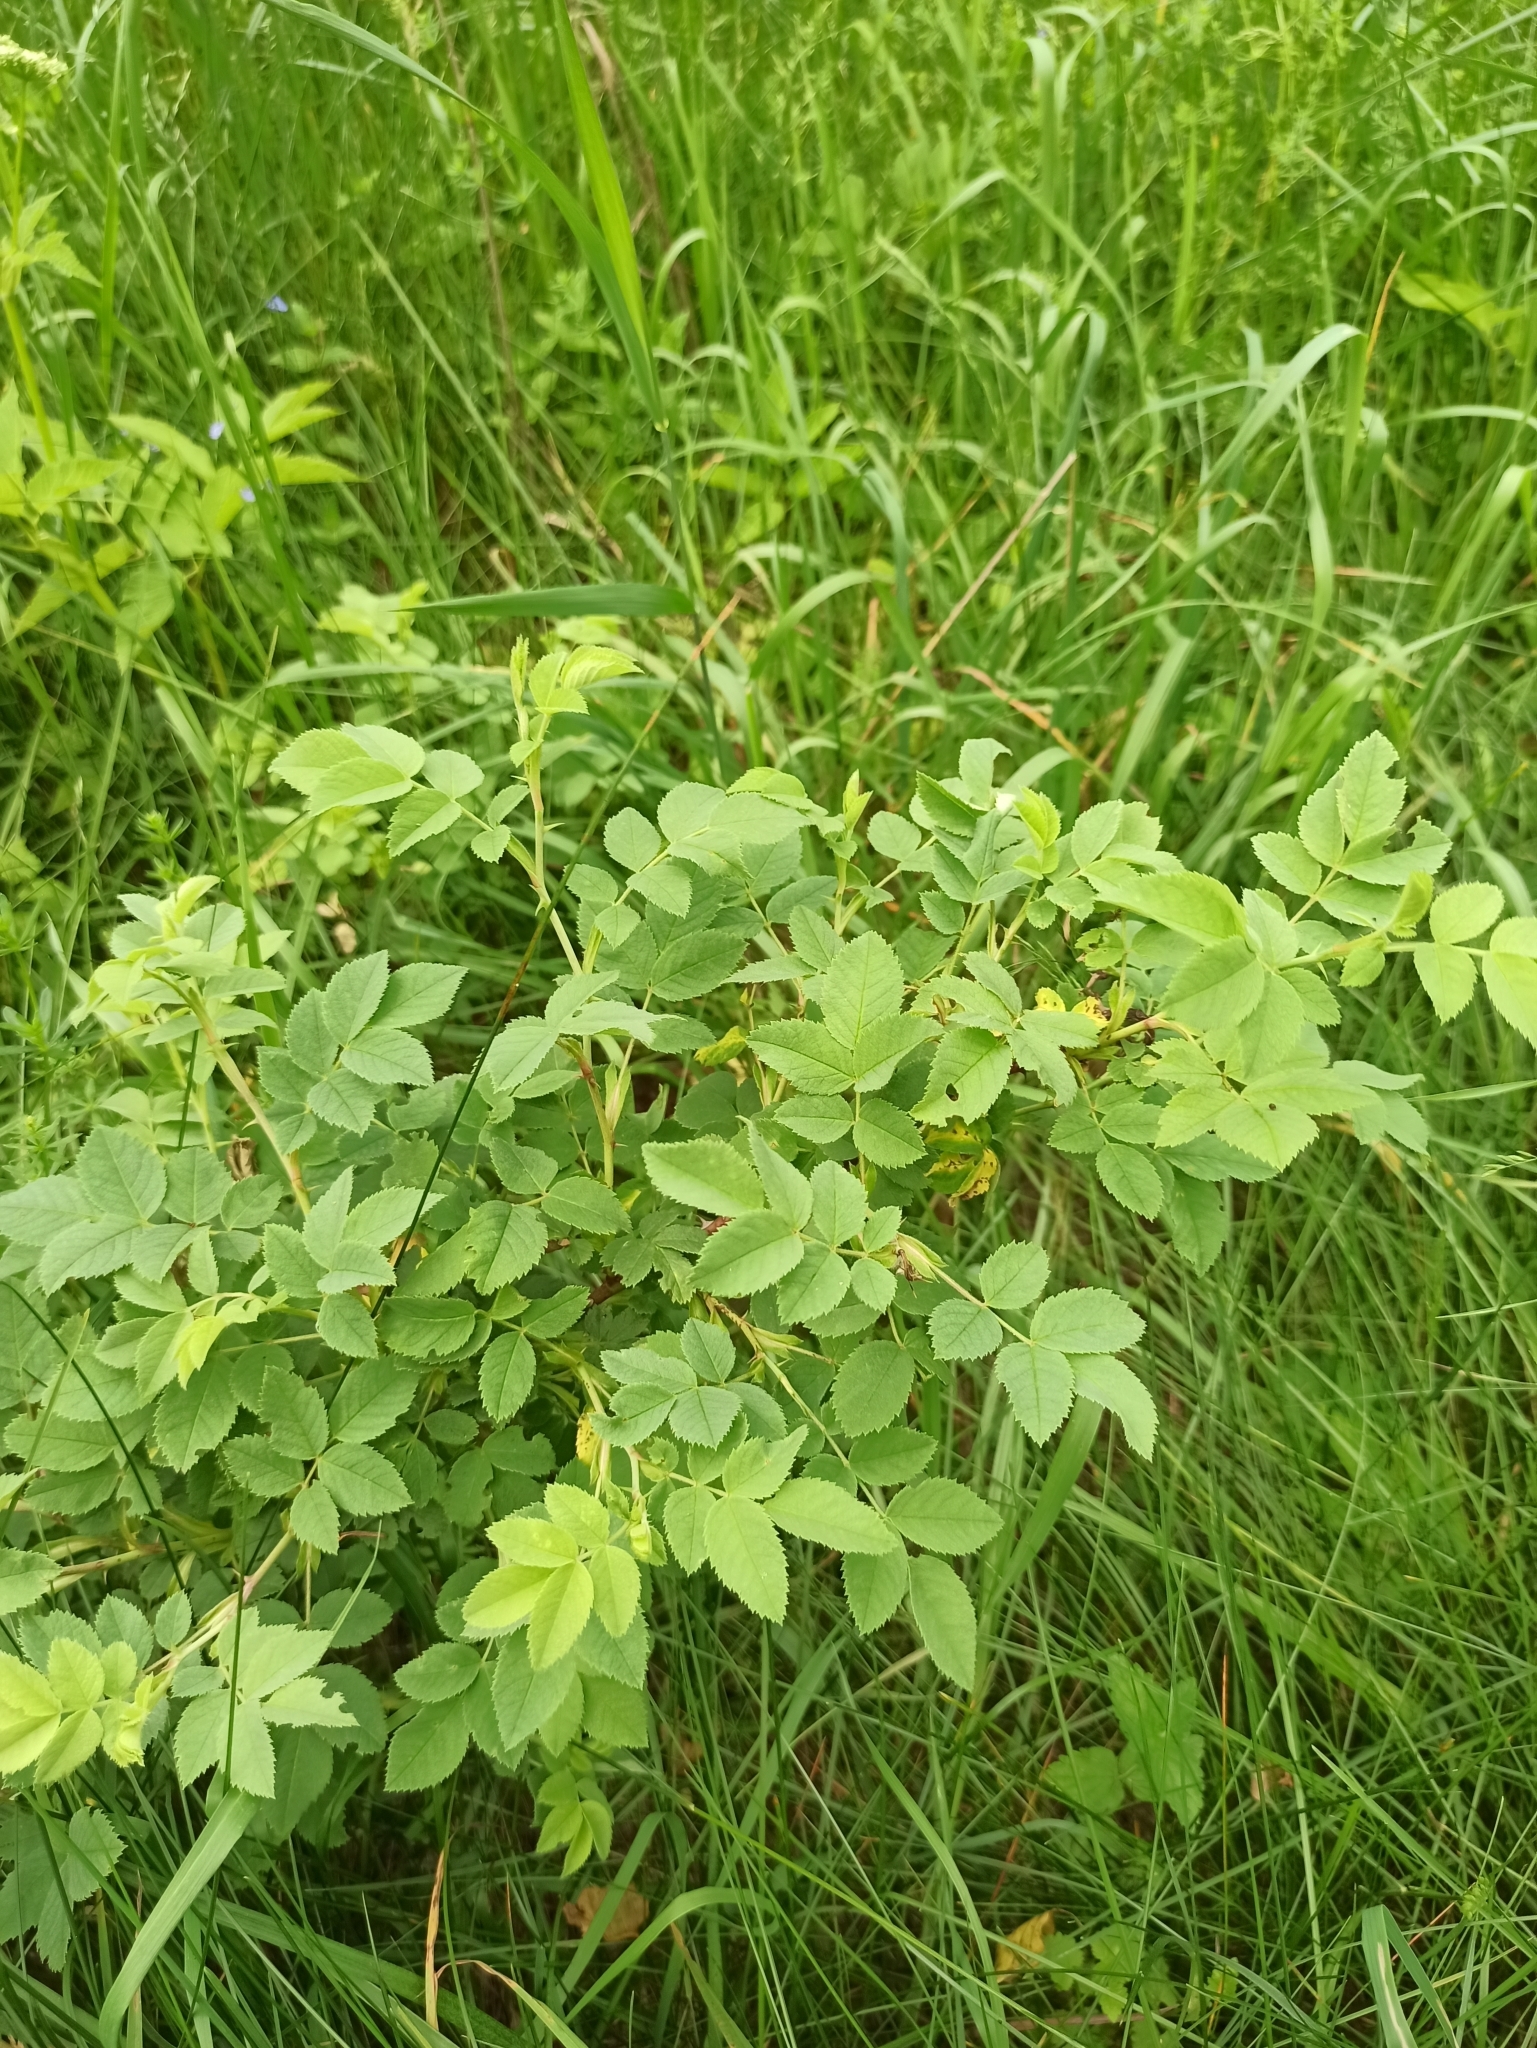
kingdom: Plantae
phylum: Tracheophyta
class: Magnoliopsida
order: Rosales
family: Rosaceae
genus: Rosa
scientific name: Rosa
